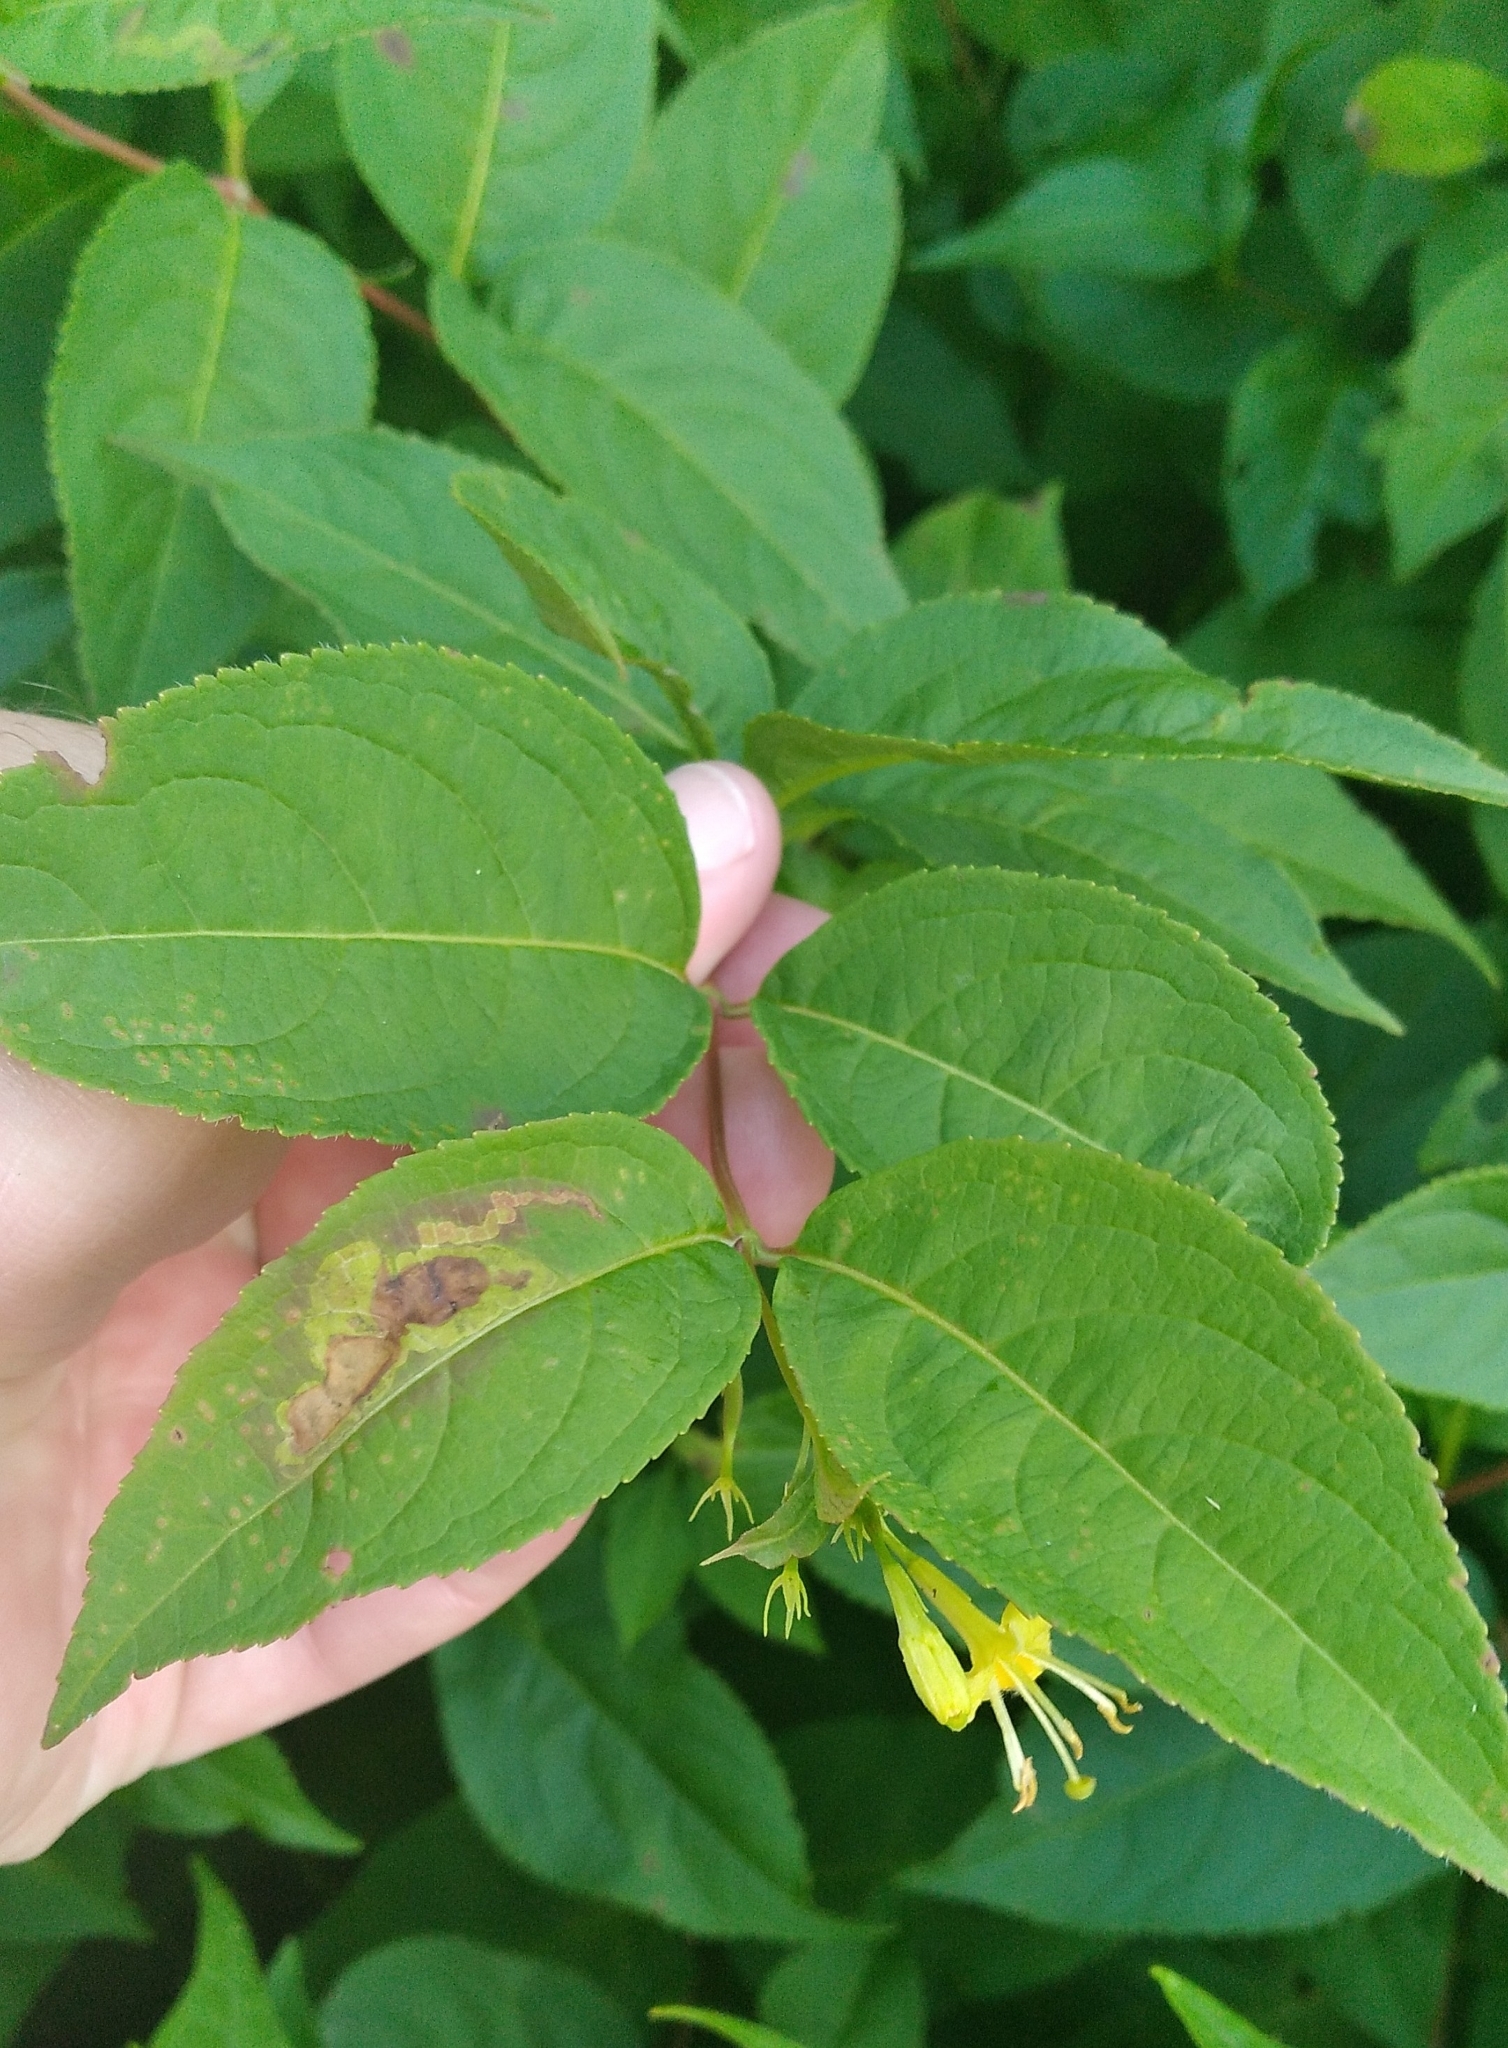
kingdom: Plantae
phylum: Tracheophyta
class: Magnoliopsida
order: Dipsacales
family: Caprifoliaceae
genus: Diervilla
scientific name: Diervilla lonicera
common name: Bush-honeysuckle
